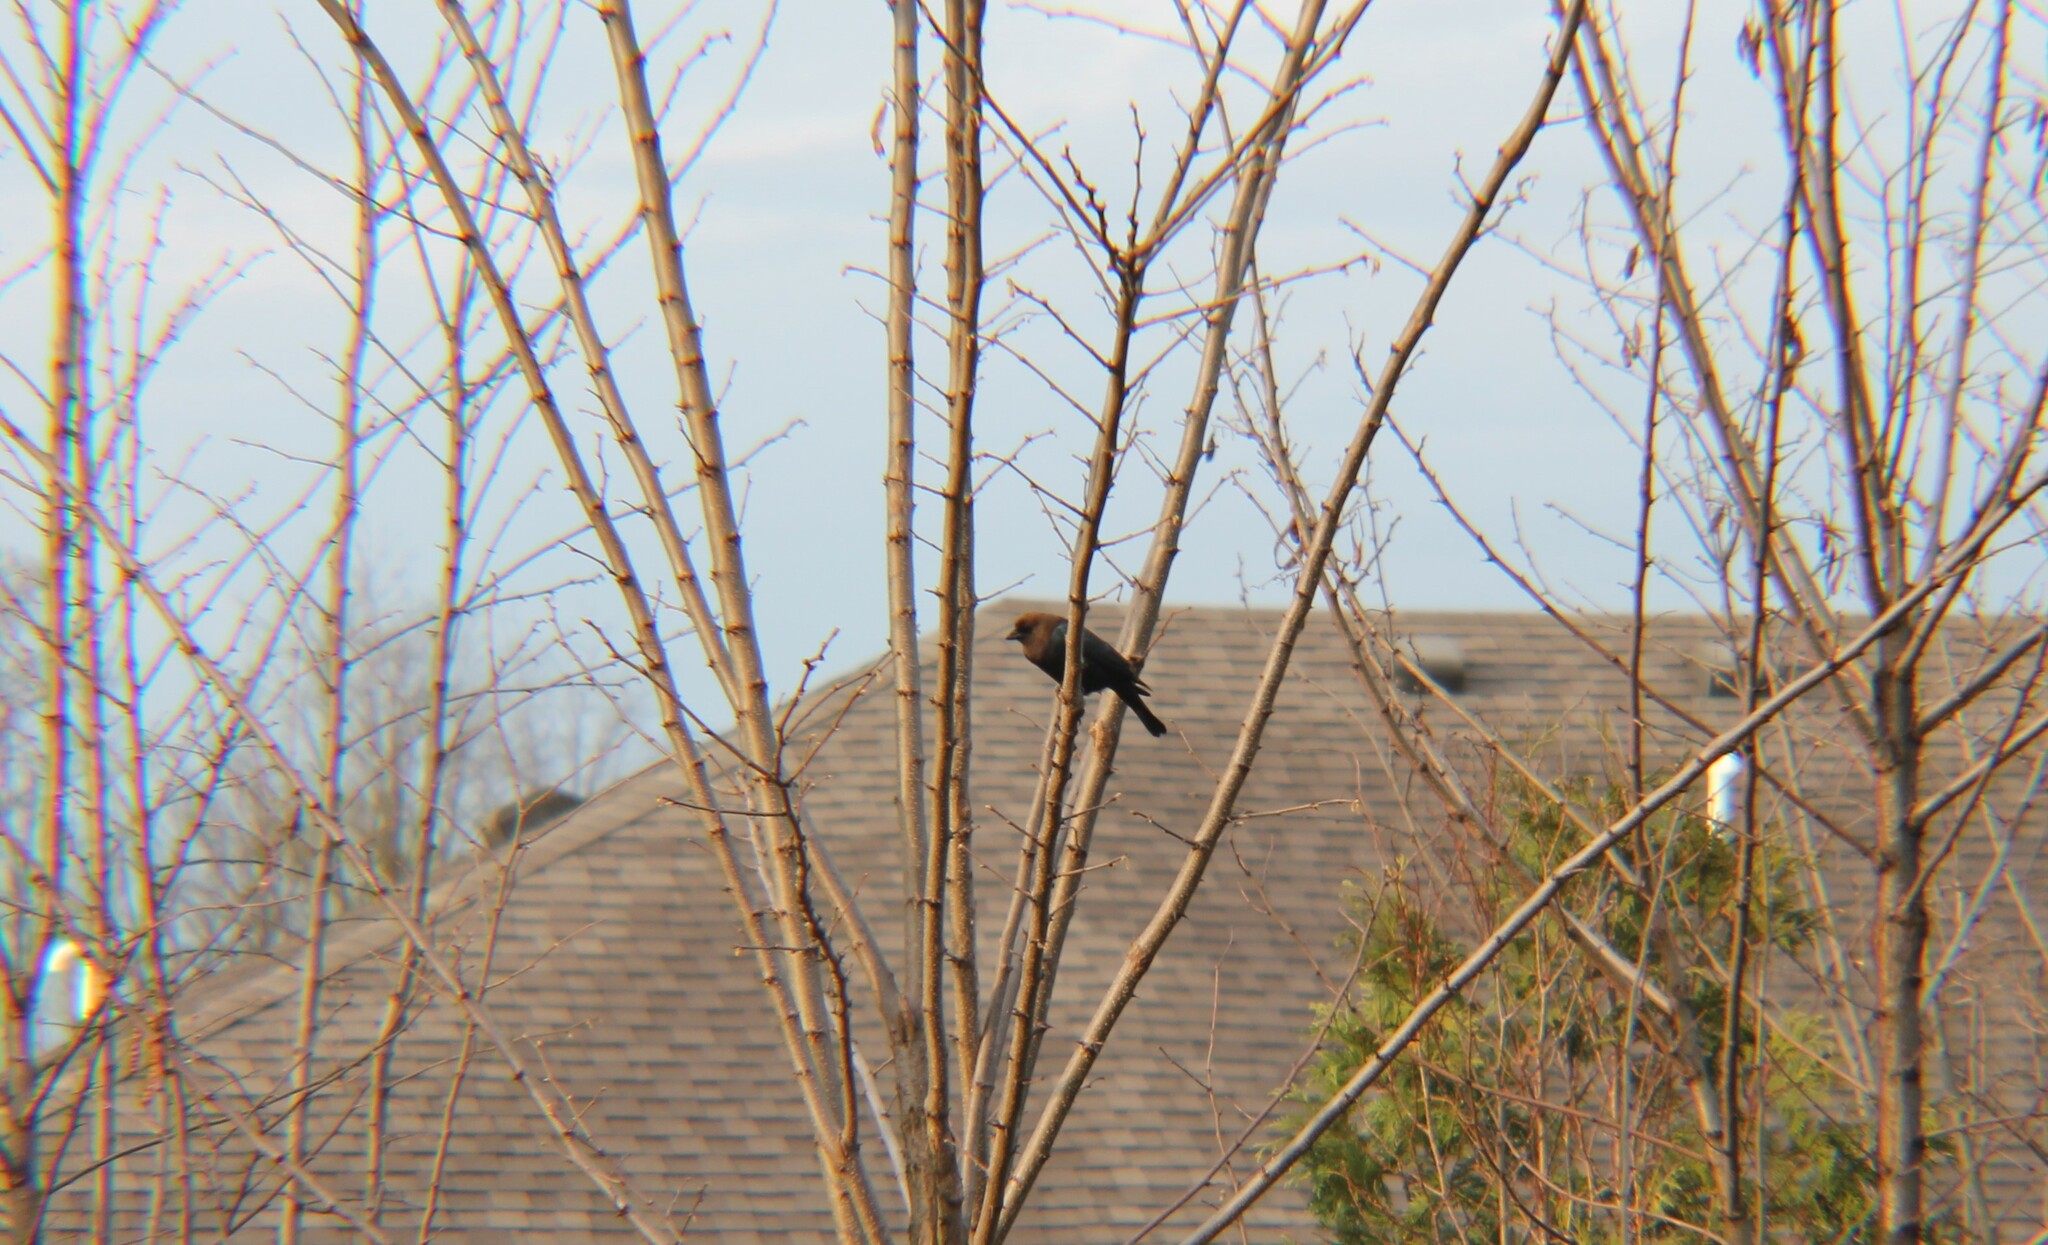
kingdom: Animalia
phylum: Chordata
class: Aves
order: Passeriformes
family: Icteridae
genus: Molothrus
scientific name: Molothrus ater
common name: Brown-headed cowbird
